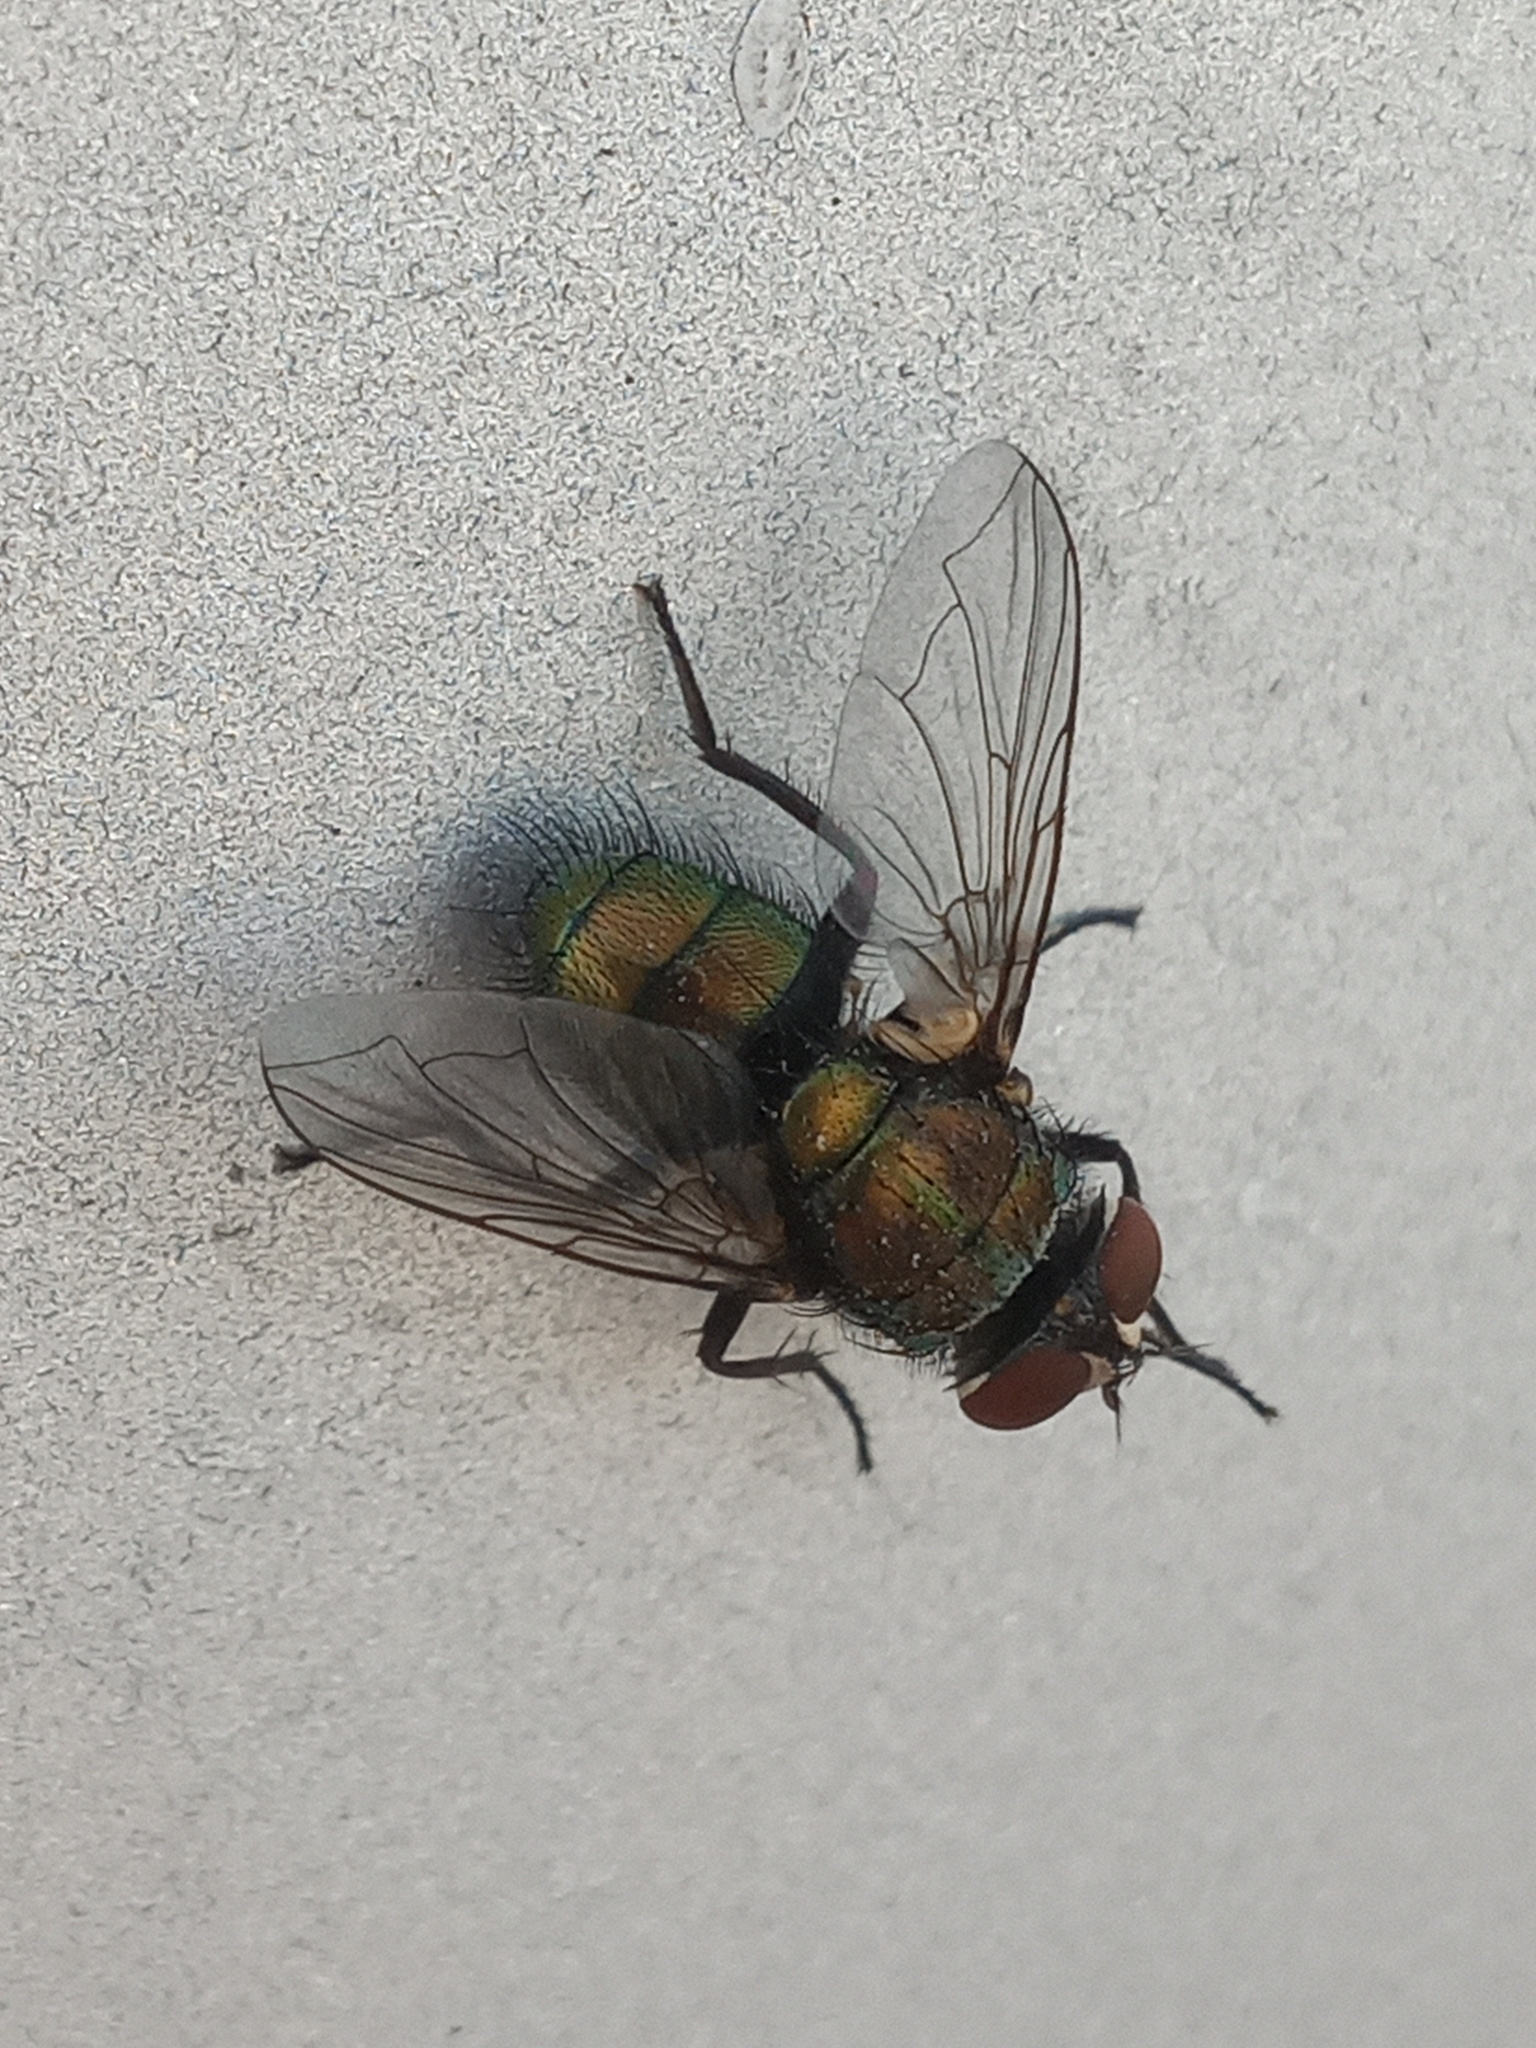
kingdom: Animalia
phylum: Arthropoda
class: Insecta
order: Diptera
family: Calliphoridae
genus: Lucilia
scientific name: Lucilia cuprina
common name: Sheep blow fly
